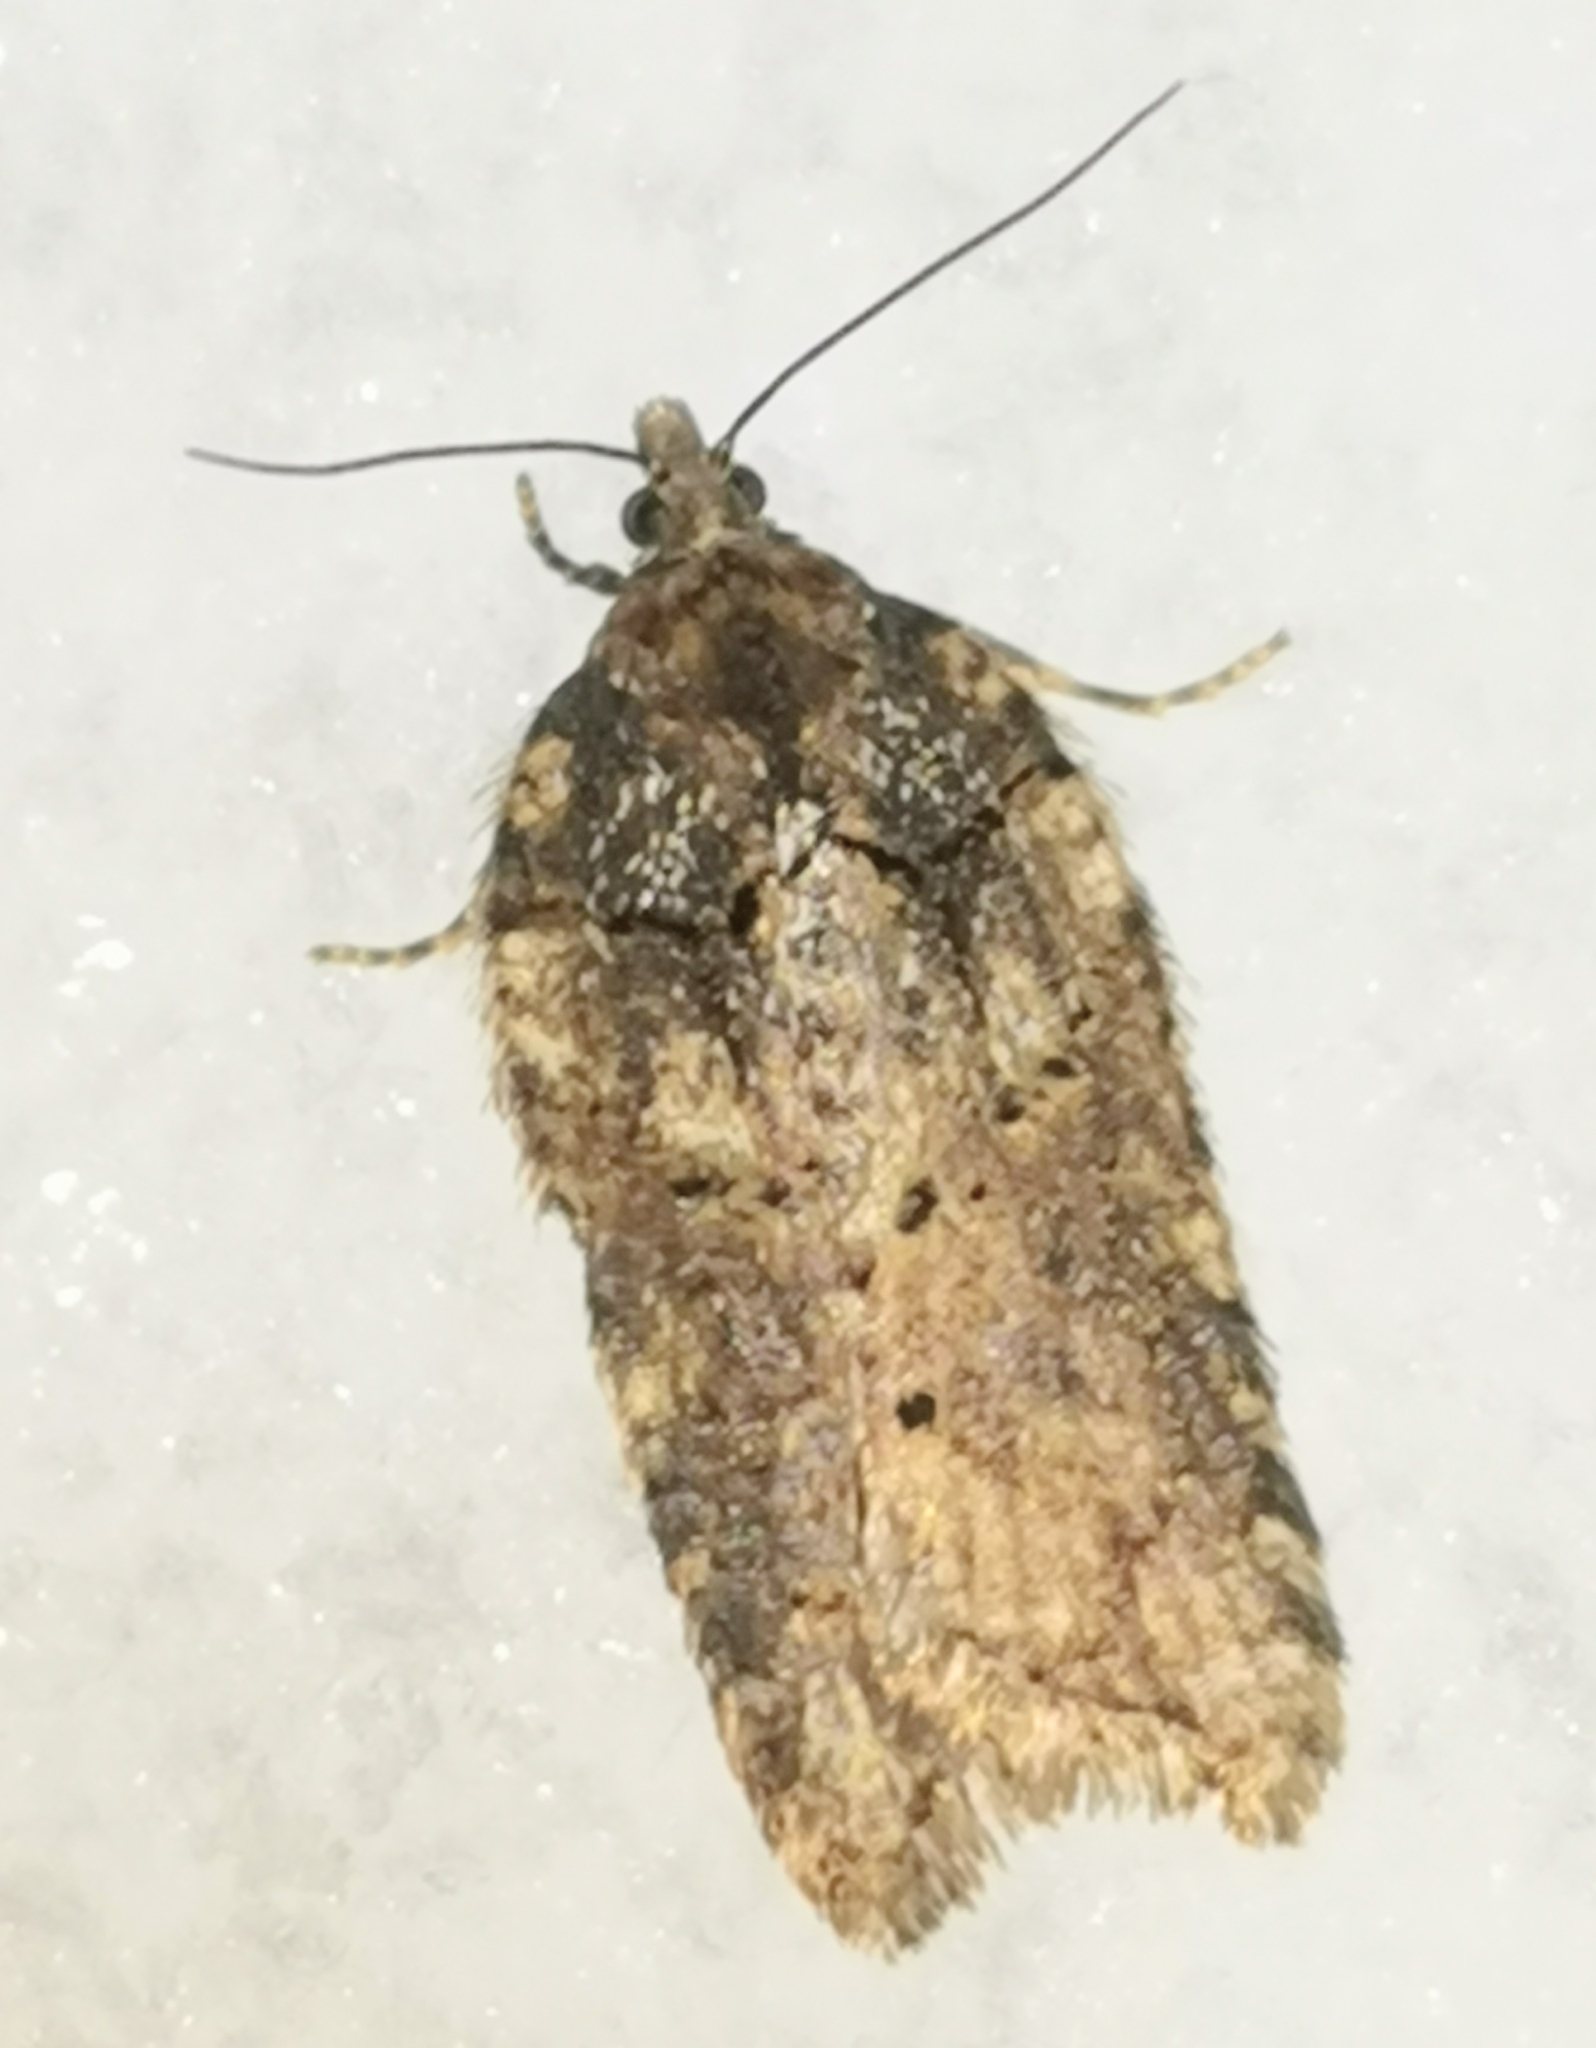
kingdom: Animalia
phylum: Arthropoda
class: Insecta
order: Lepidoptera
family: Tortricidae
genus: Acleris
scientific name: Acleris abietana
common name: Perth button
